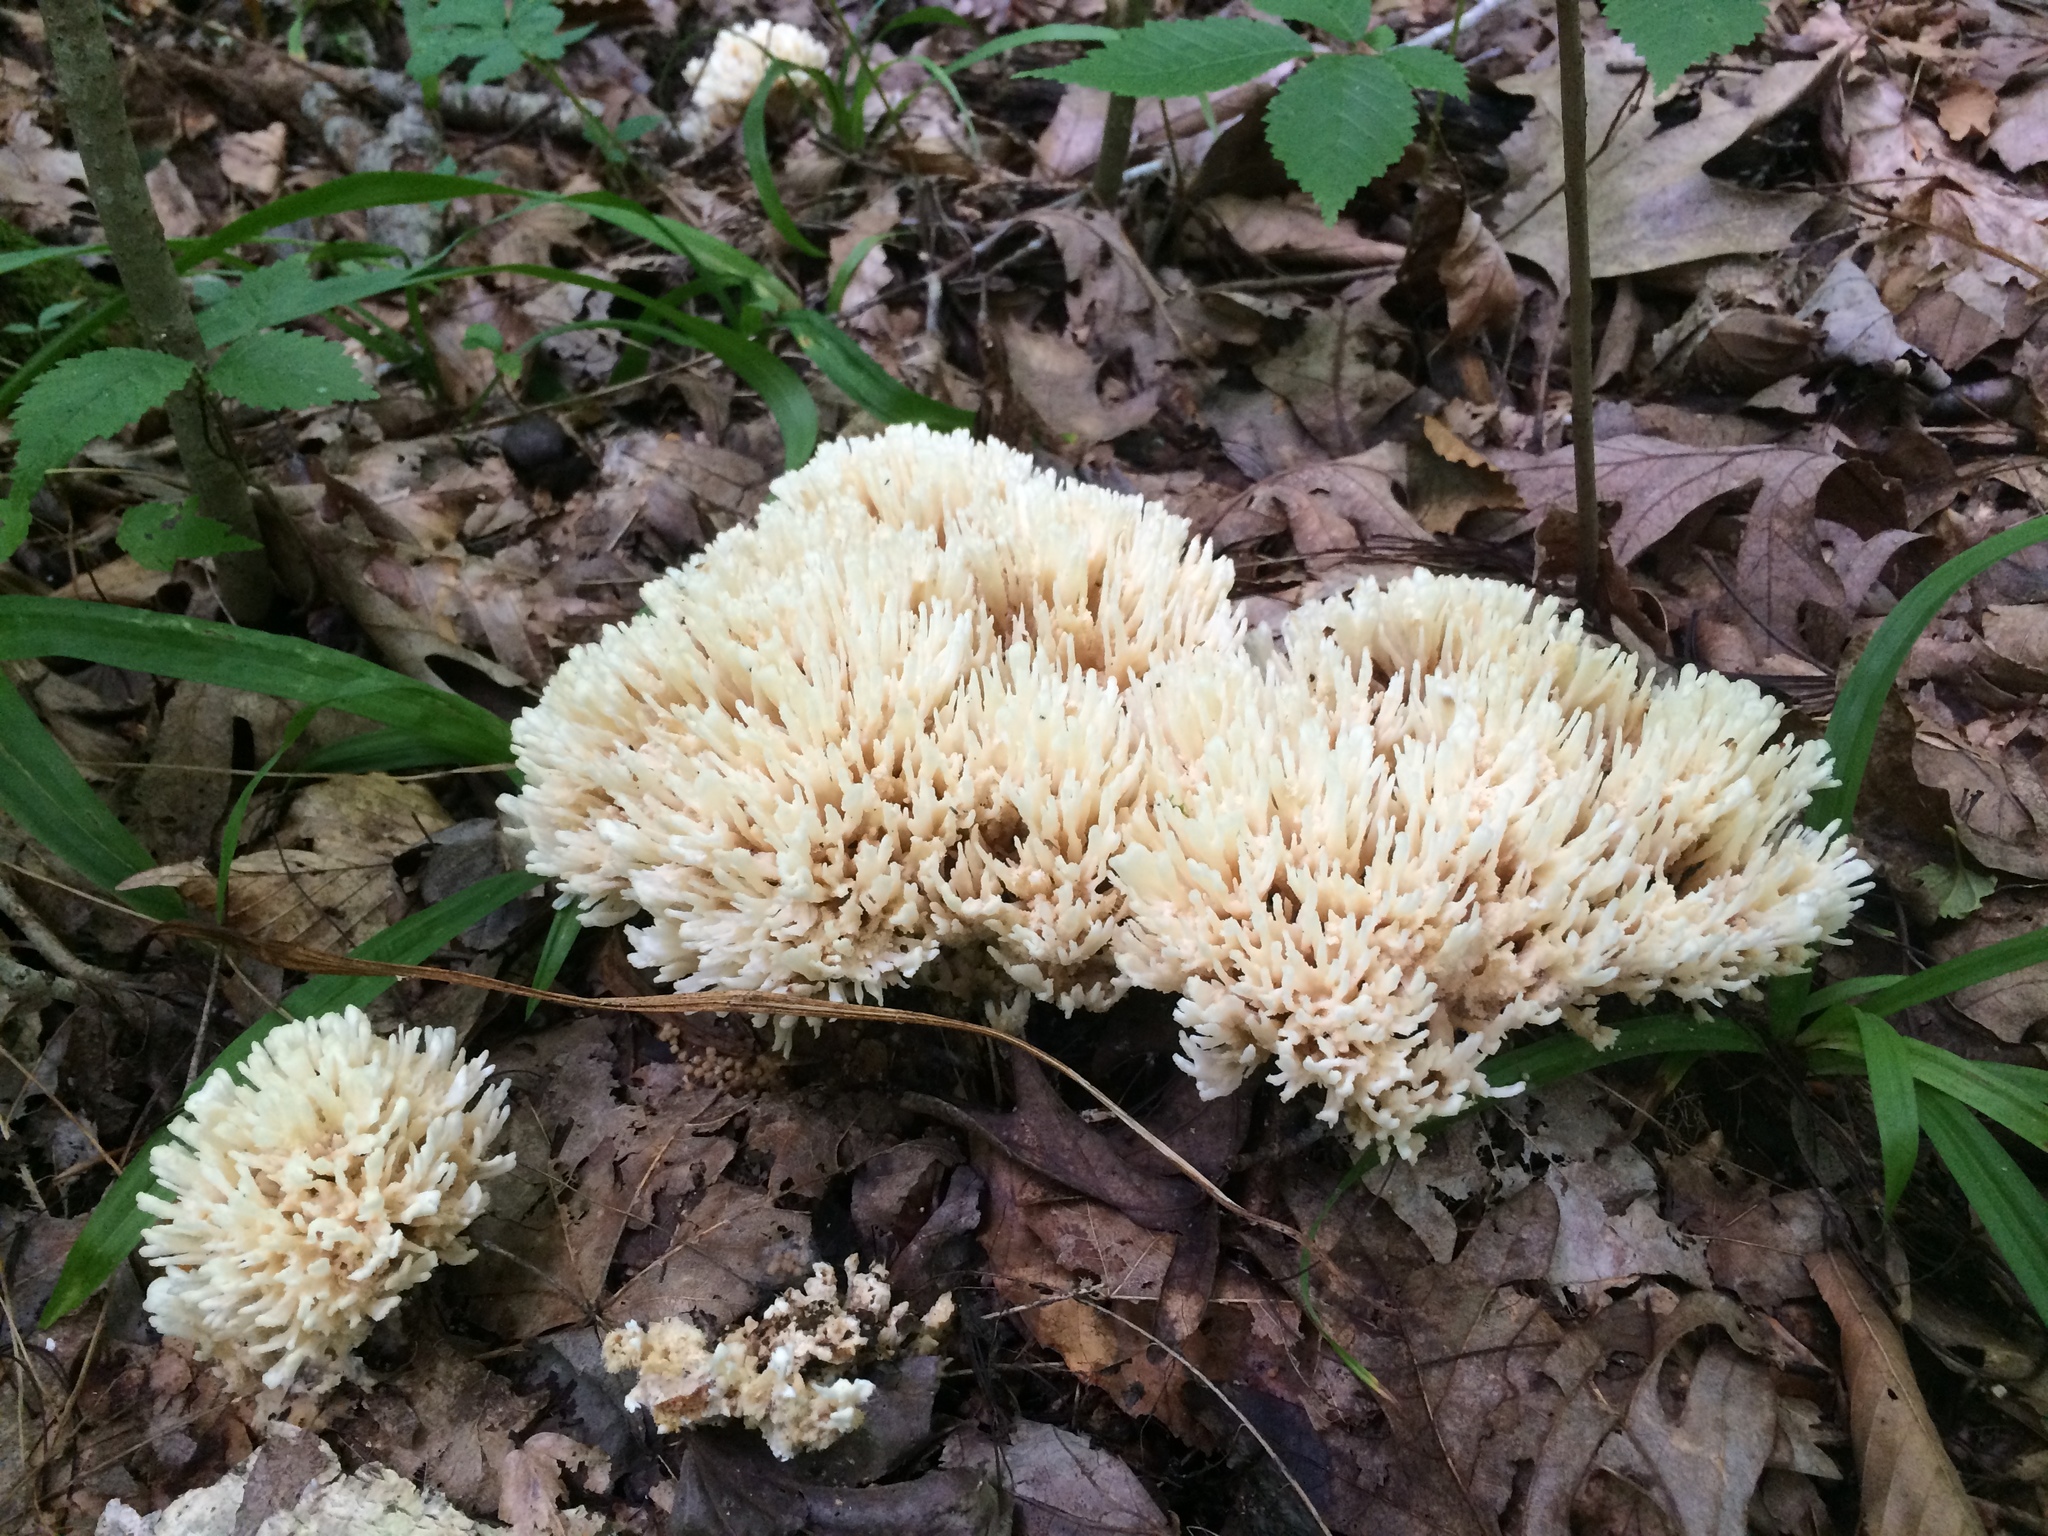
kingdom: Fungi
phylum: Basidiomycota
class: Agaricomycetes
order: Sebacinales
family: Sebacinaceae
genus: Sebacina
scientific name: Sebacina schweinitzii
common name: Jellied false coral fungus
